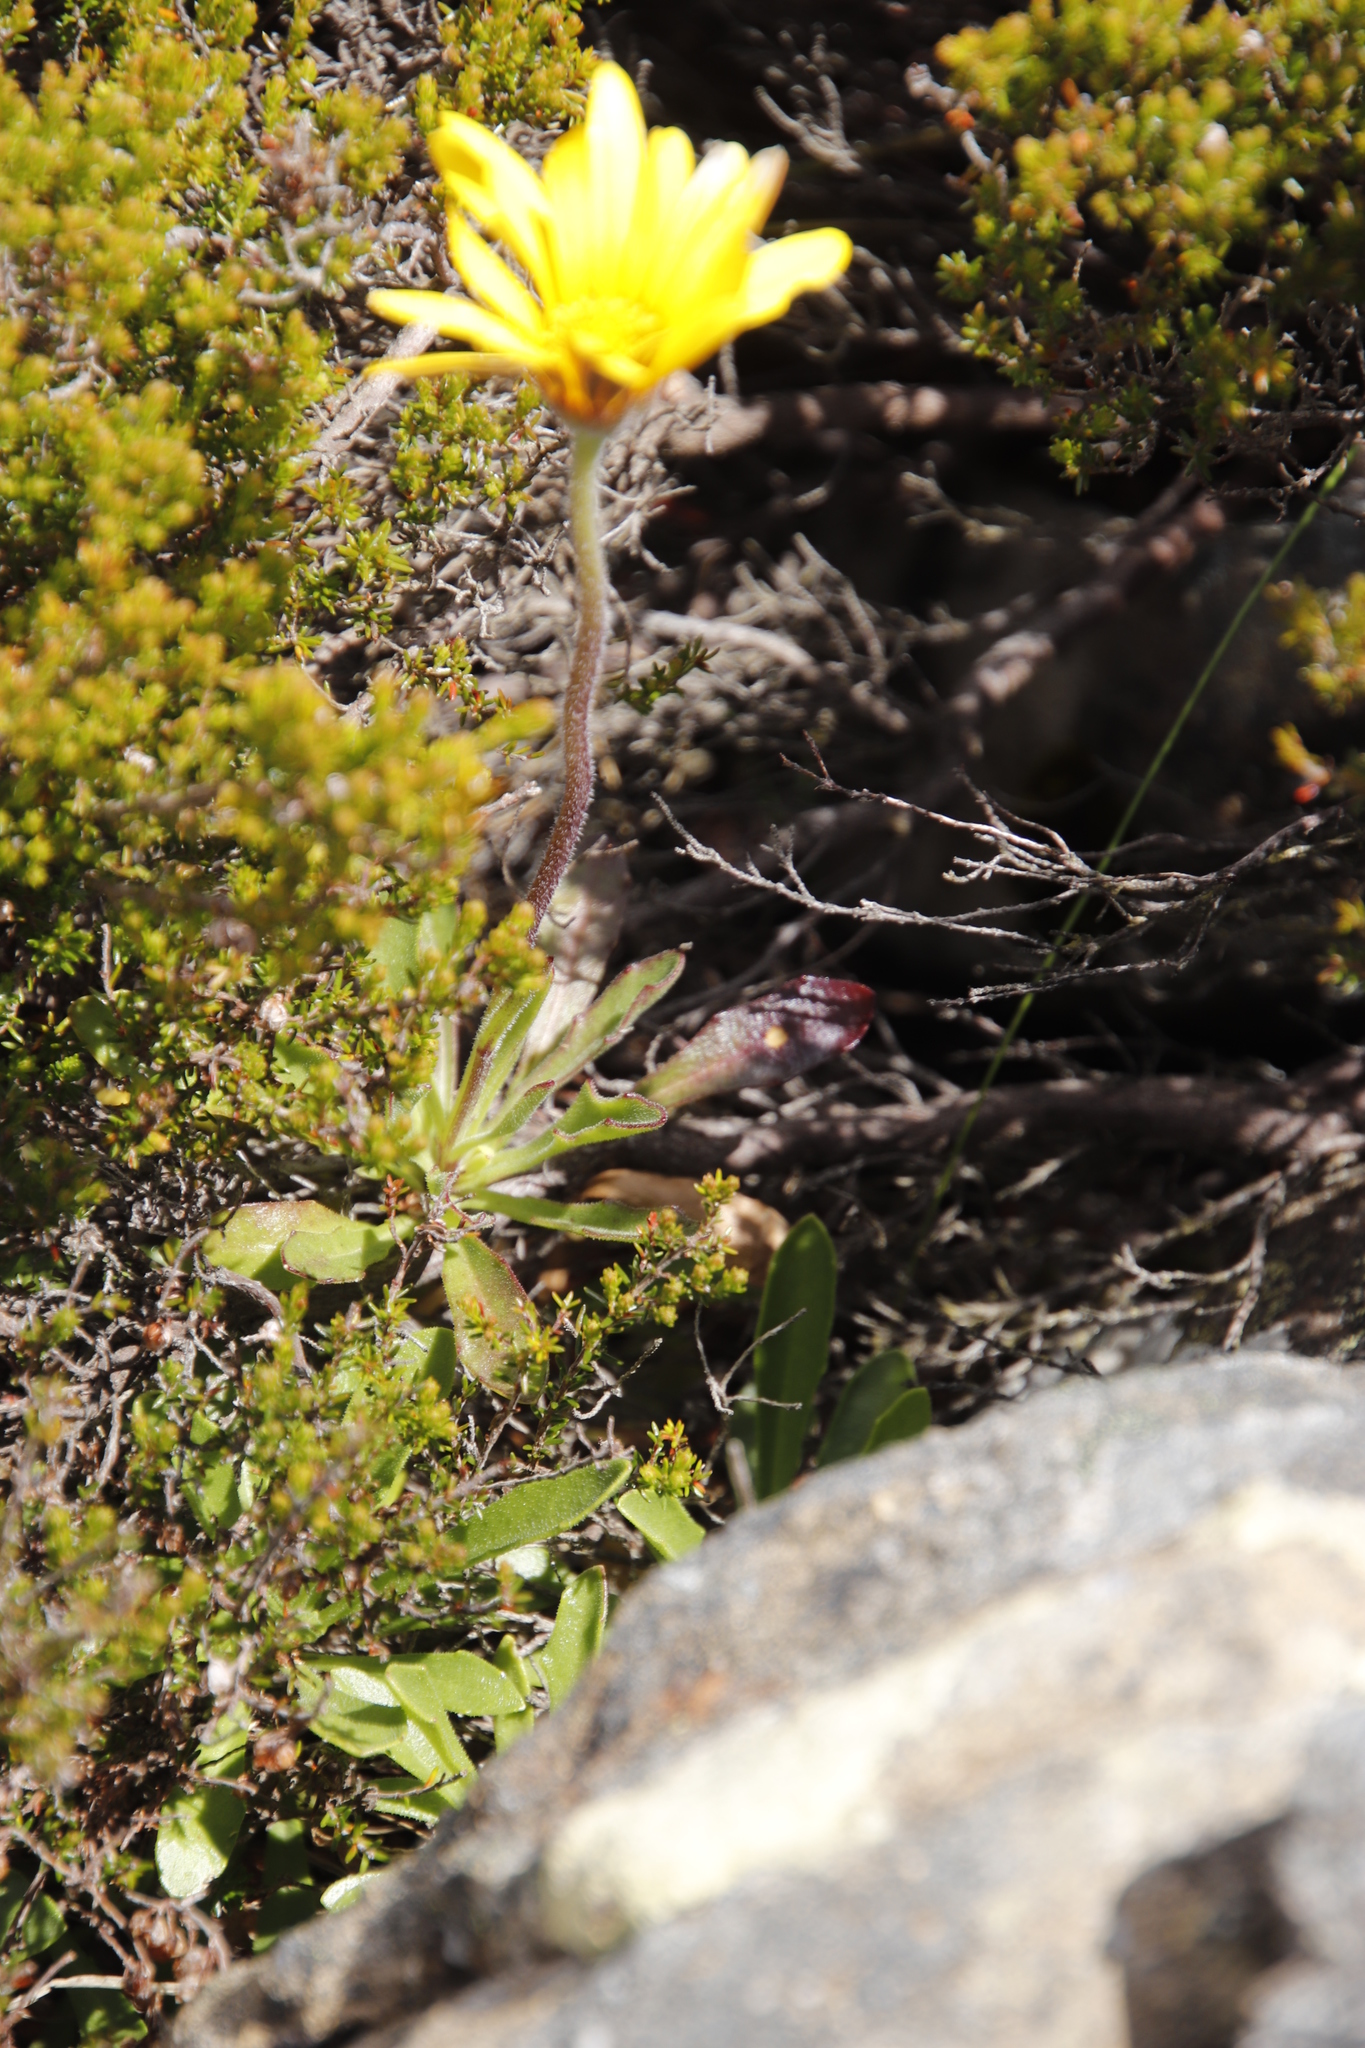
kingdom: Plantae
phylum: Tracheophyta
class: Magnoliopsida
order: Asterales
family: Asteraceae
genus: Dimorphotheca
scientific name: Dimorphotheca montana
